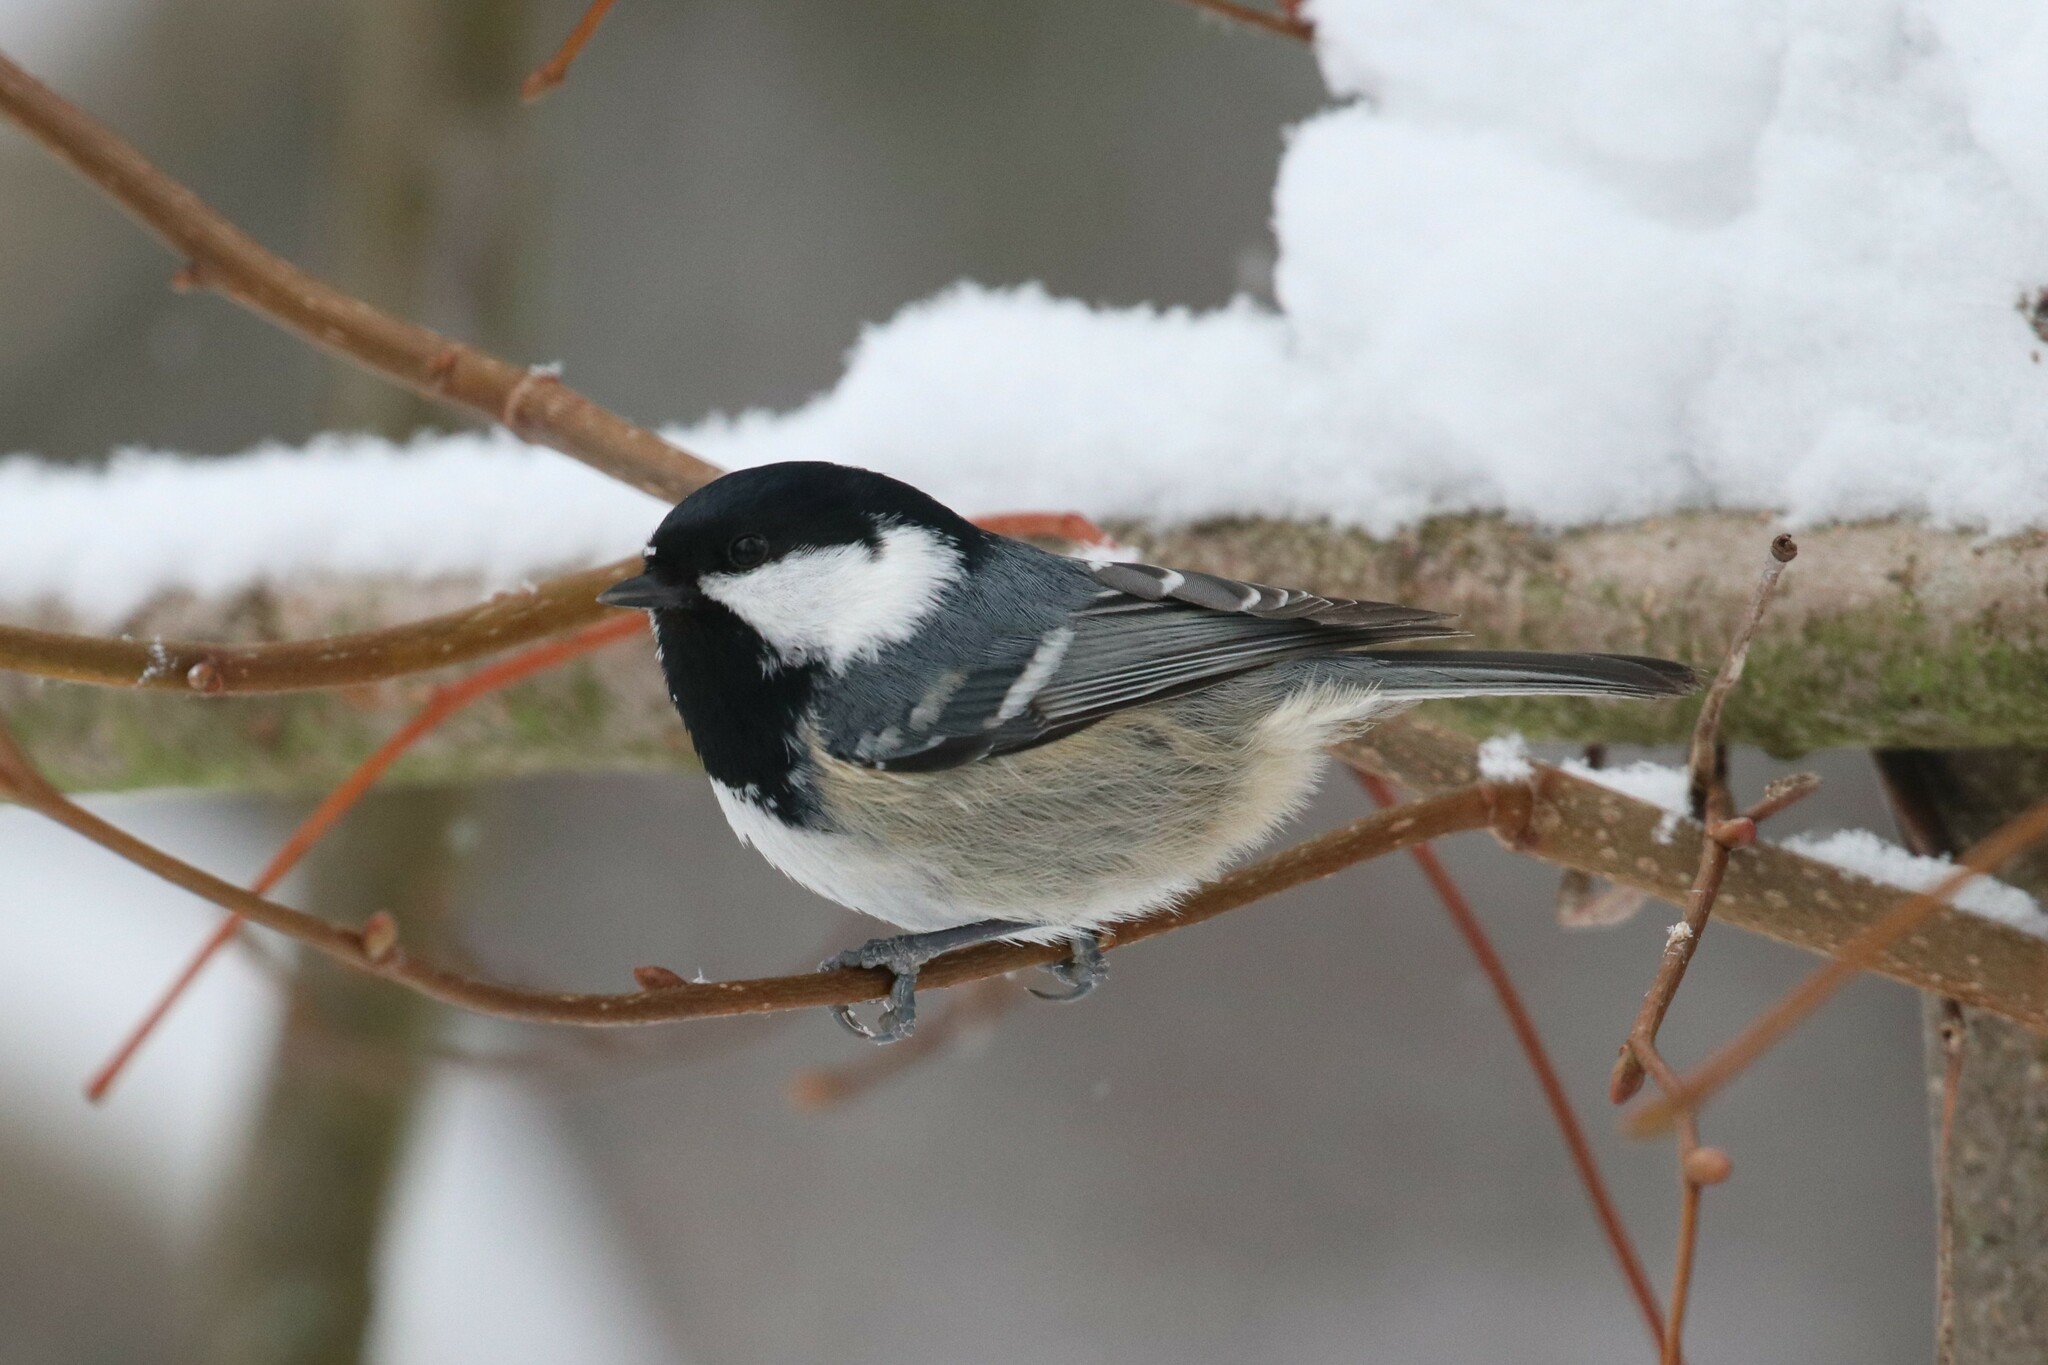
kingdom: Animalia
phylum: Chordata
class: Aves
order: Passeriformes
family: Paridae
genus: Periparus
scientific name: Periparus ater
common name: Coal tit
